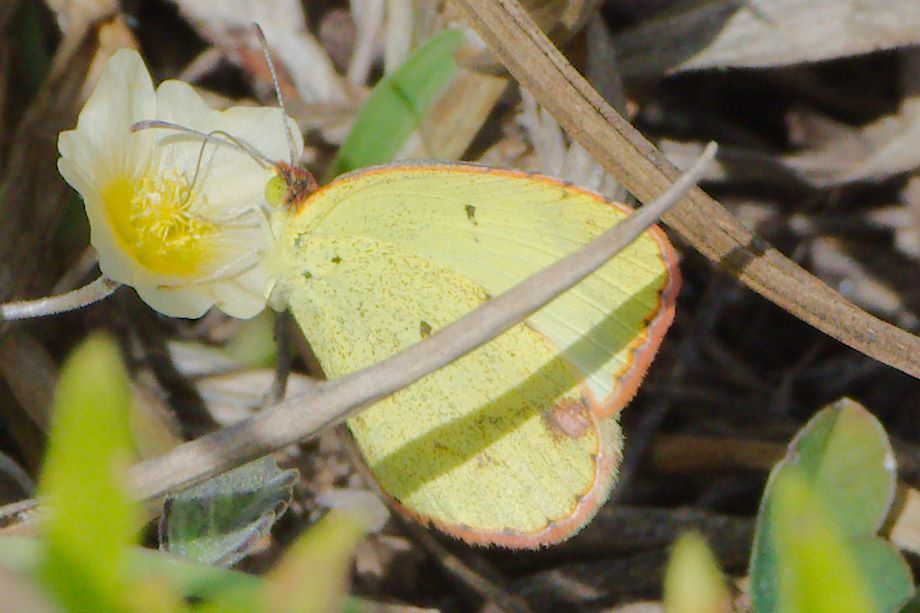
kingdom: Animalia
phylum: Arthropoda
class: Insecta
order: Lepidoptera
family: Pieridae
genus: Pyrisitia
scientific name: Pyrisitia lisa
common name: Little yellow
